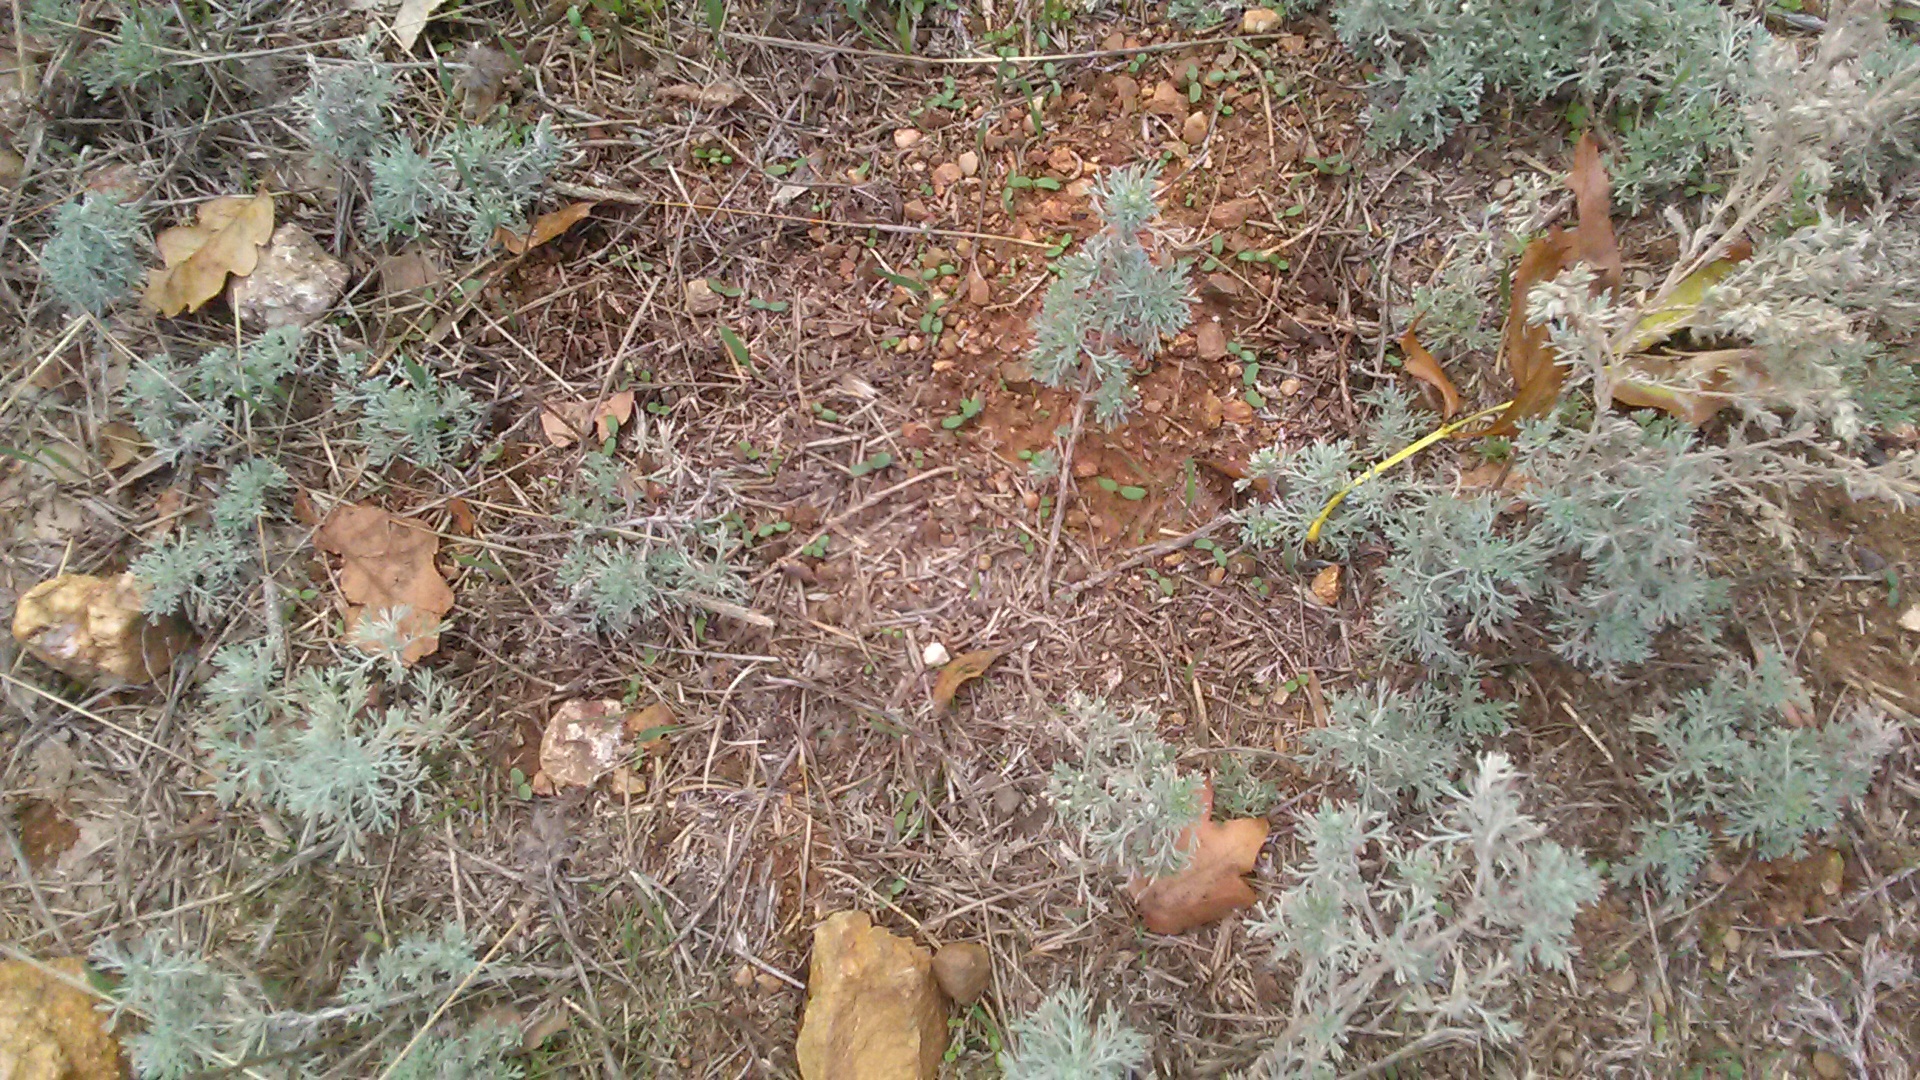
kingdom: Plantae
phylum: Tracheophyta
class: Magnoliopsida
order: Asterales
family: Asteraceae
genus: Artemisia
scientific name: Artemisia austriaca
